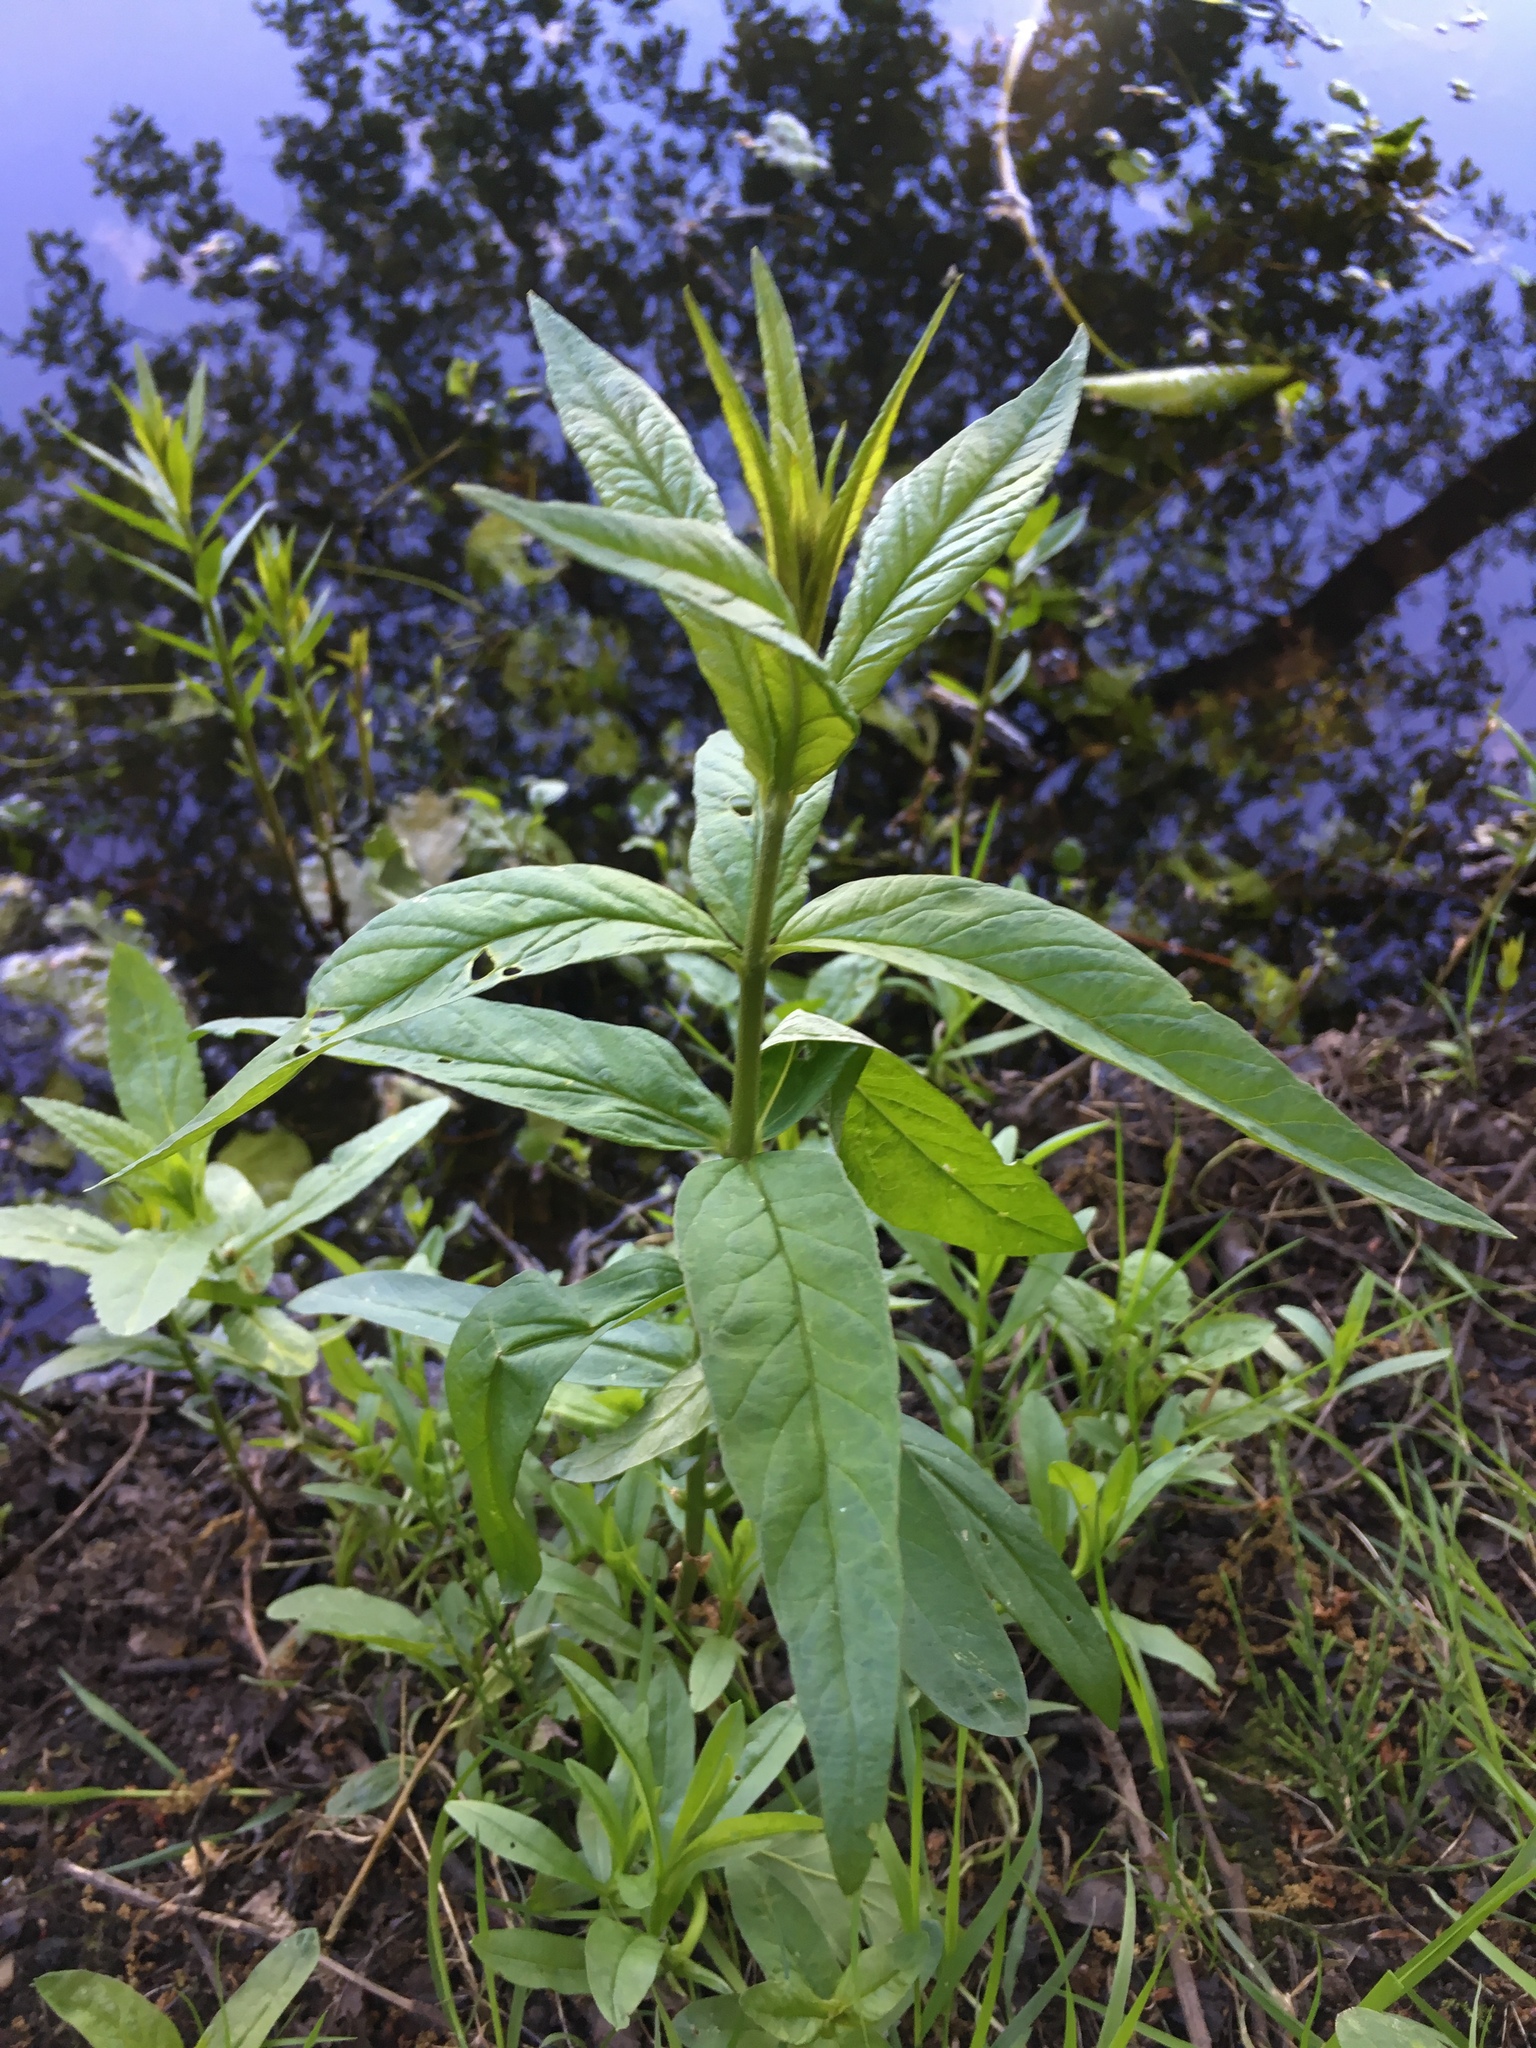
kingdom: Plantae
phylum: Tracheophyta
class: Magnoliopsida
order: Ericales
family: Primulaceae
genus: Lysimachia
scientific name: Lysimachia vulgaris
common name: Yellow loosestrife
